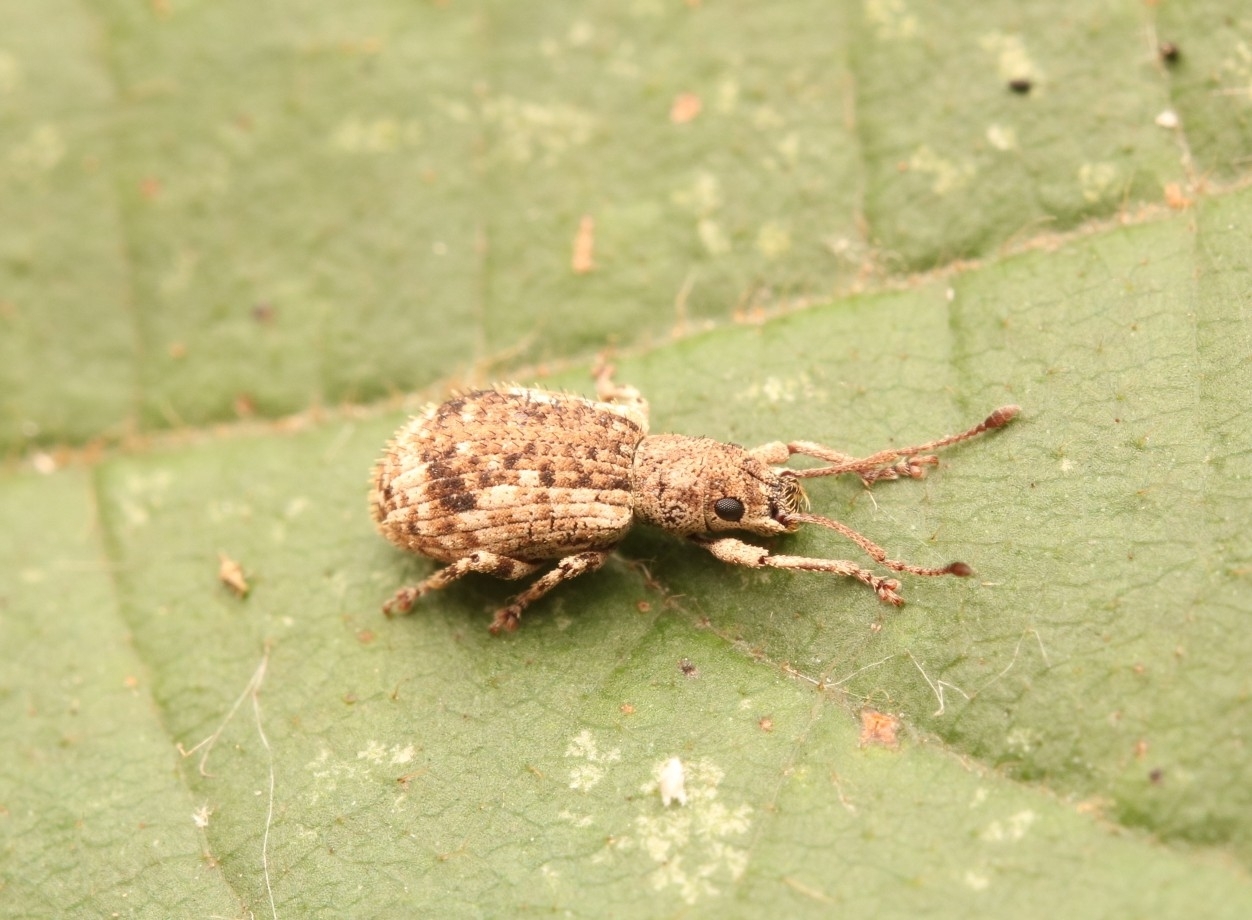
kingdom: Animalia
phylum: Arthropoda
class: Insecta
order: Coleoptera
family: Curculionidae
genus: Pseudoedophrys
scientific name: Pseudoedophrys hilleri
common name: Weevil
